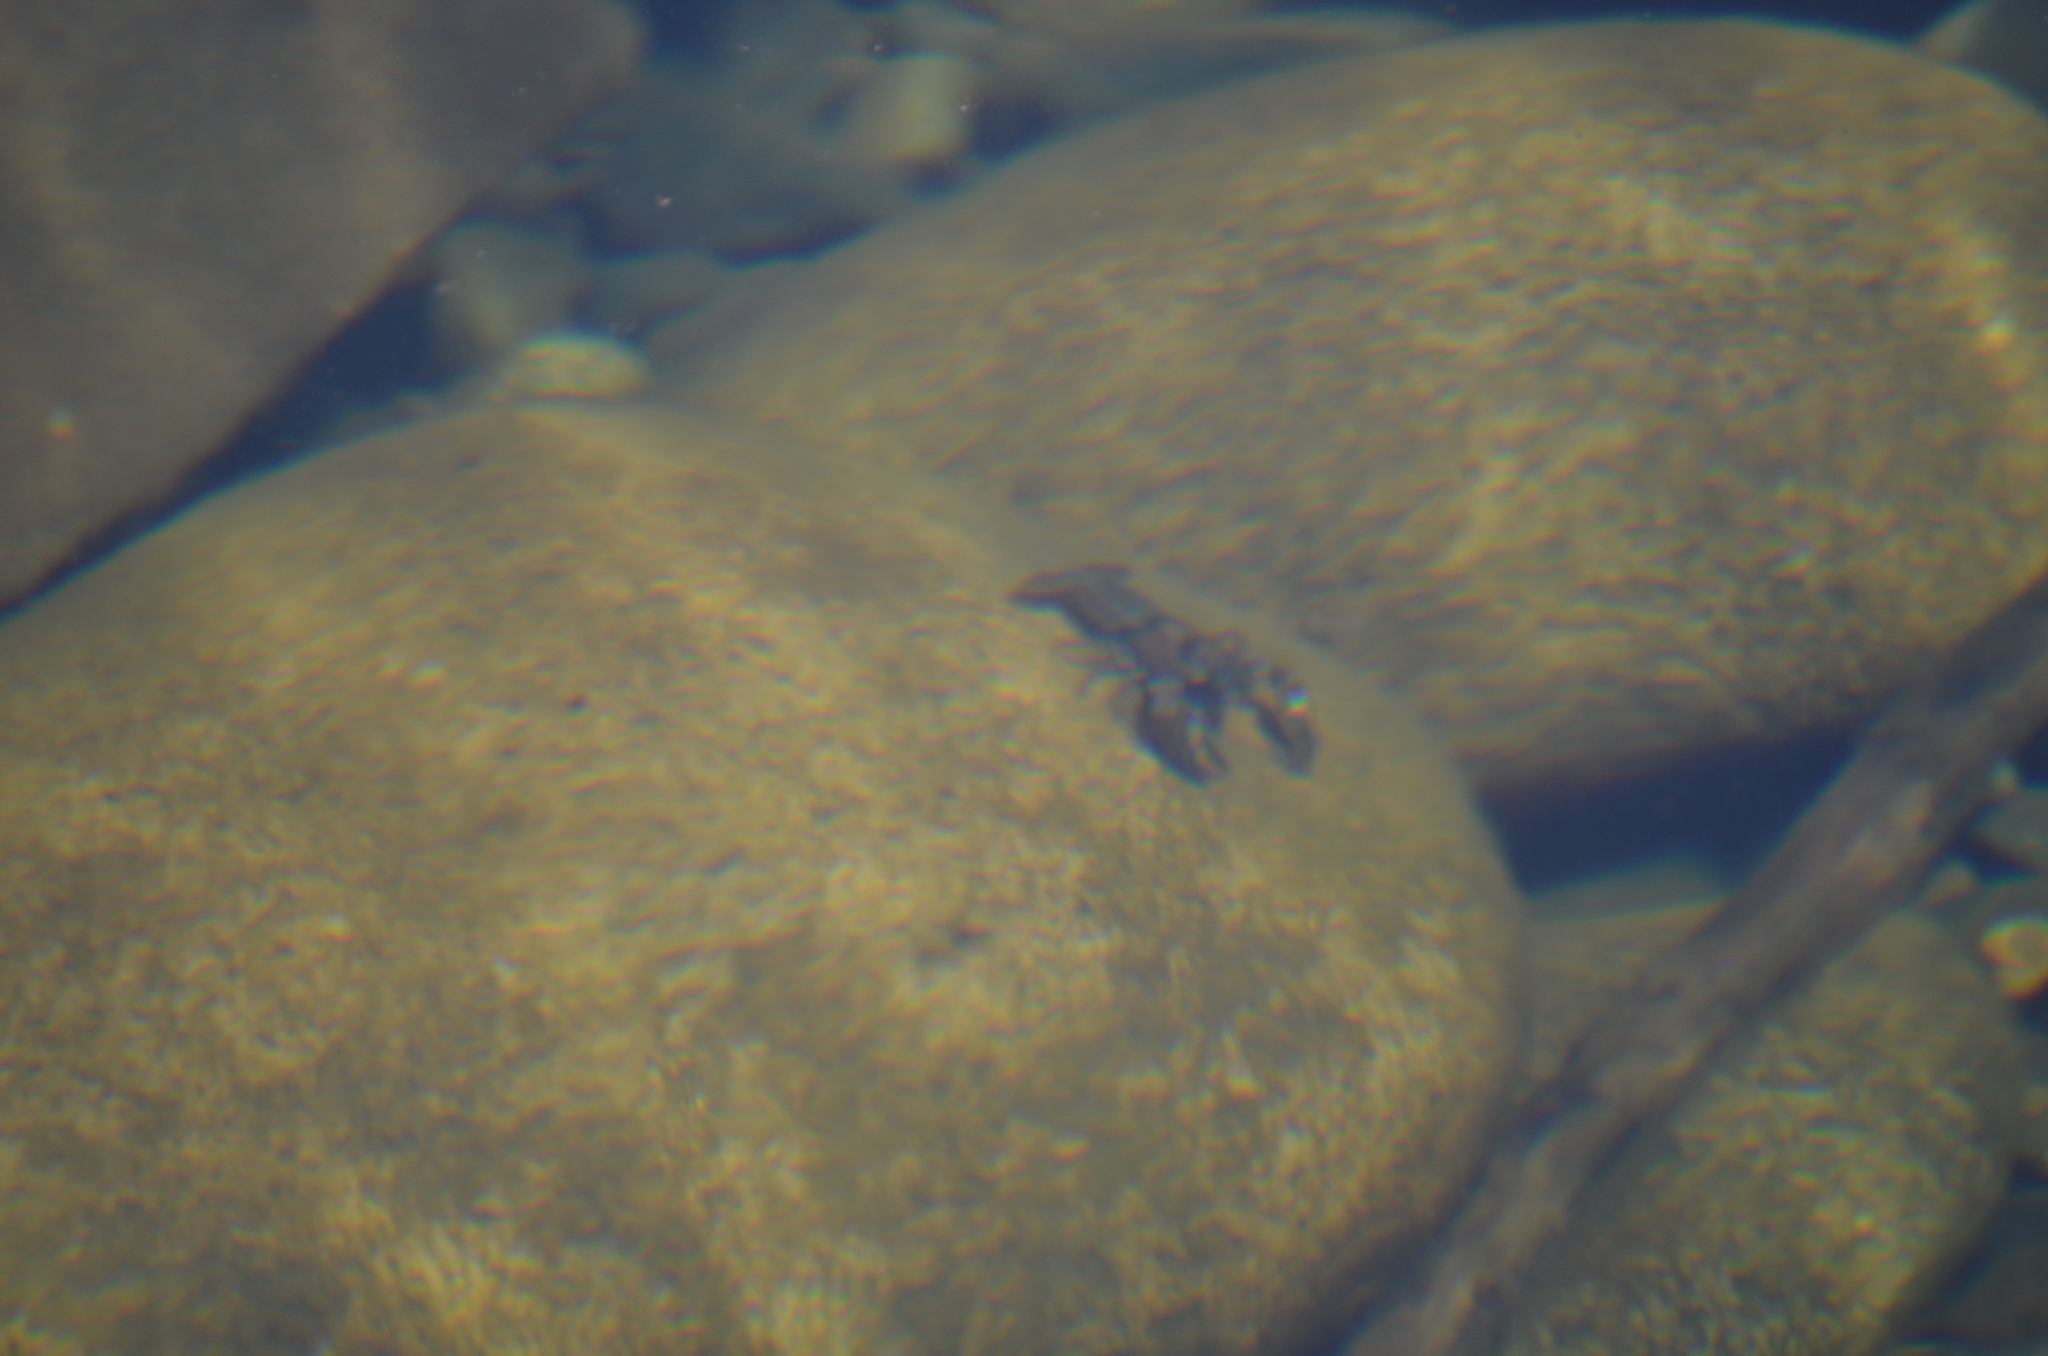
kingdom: Animalia
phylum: Arthropoda
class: Malacostraca
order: Decapoda
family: Astacidae
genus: Pacifastacus
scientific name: Pacifastacus leniusculus
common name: Signal crayfish
